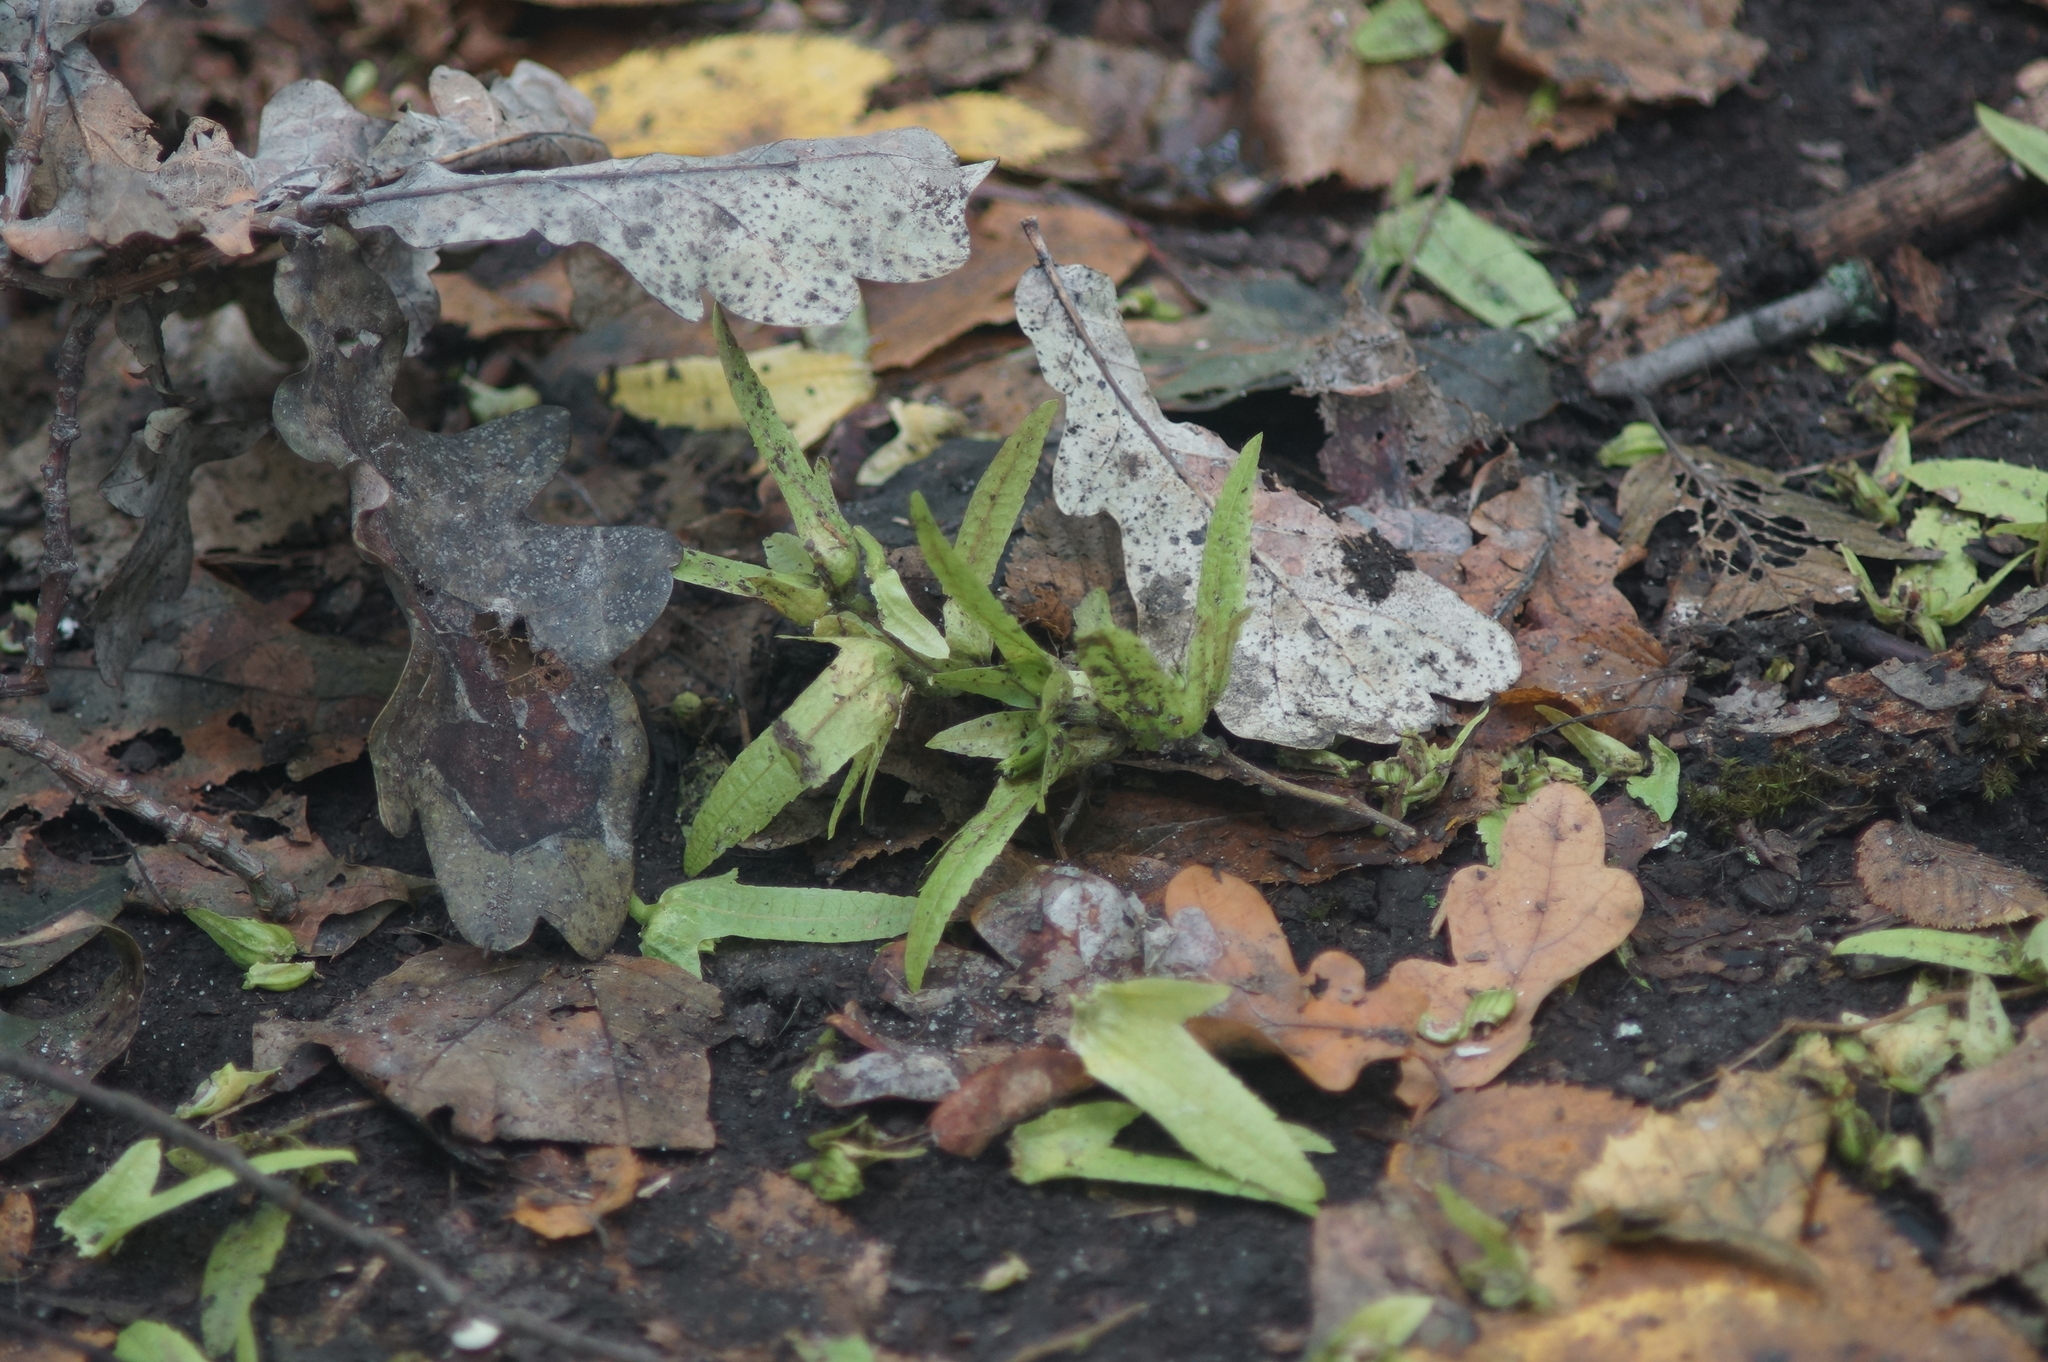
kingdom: Plantae
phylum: Tracheophyta
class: Magnoliopsida
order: Fagales
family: Betulaceae
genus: Carpinus
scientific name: Carpinus betulus
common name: Hornbeam
